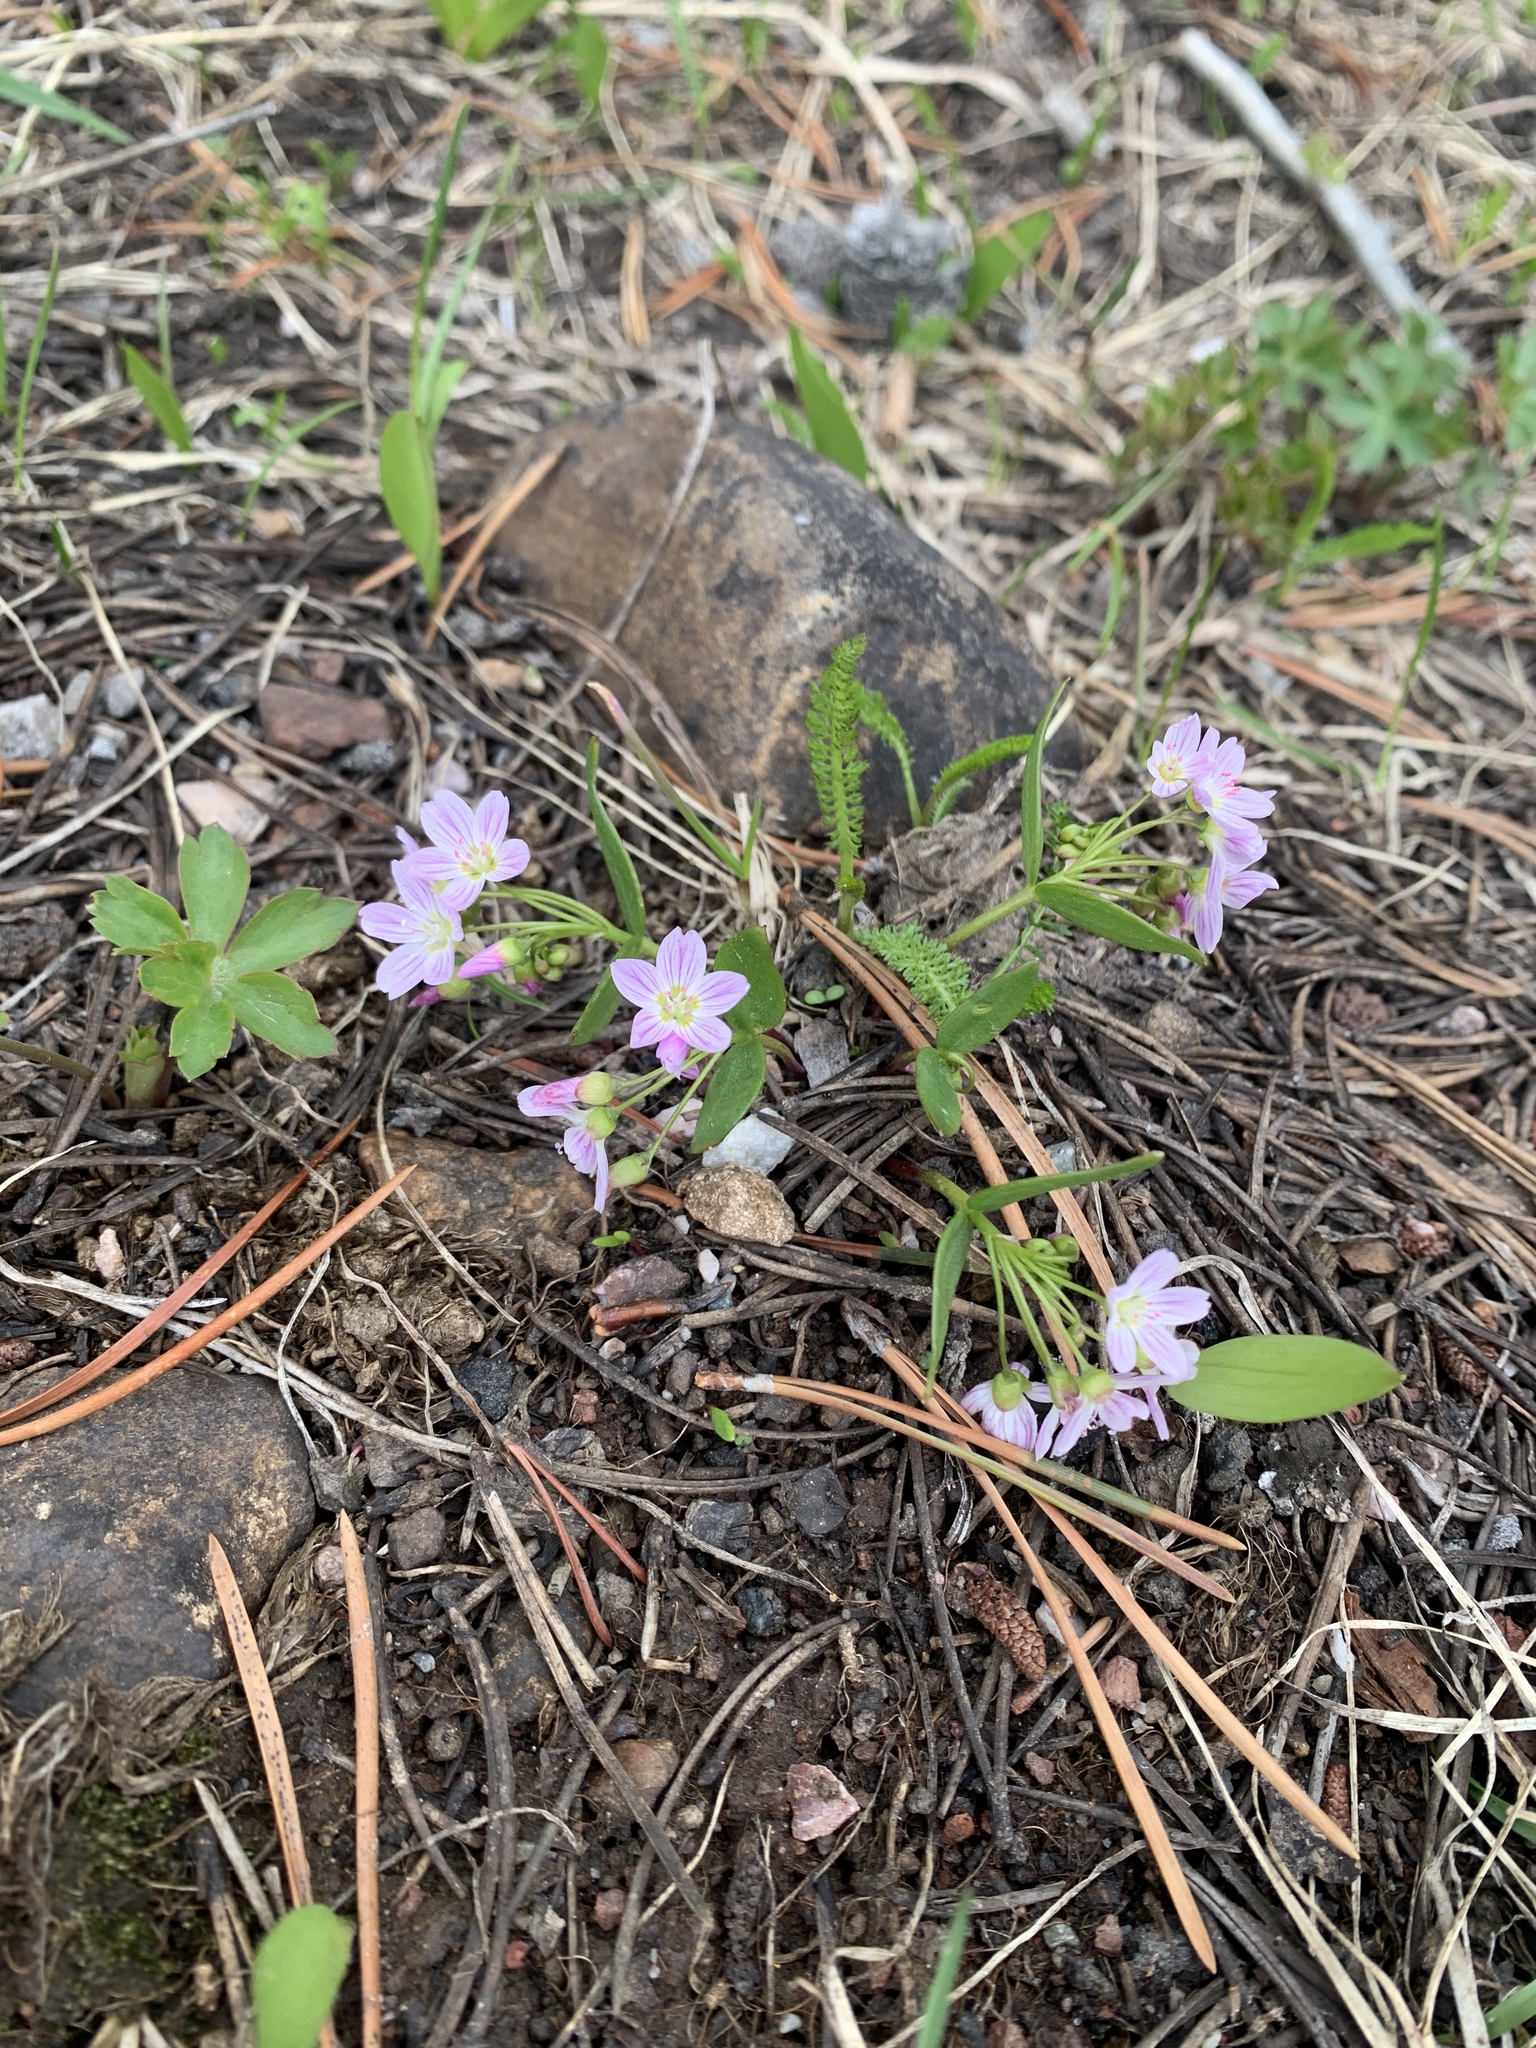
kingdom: Plantae
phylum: Tracheophyta
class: Magnoliopsida
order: Caryophyllales
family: Montiaceae
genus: Claytonia
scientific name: Claytonia lanceolata
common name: Western spring-beauty
